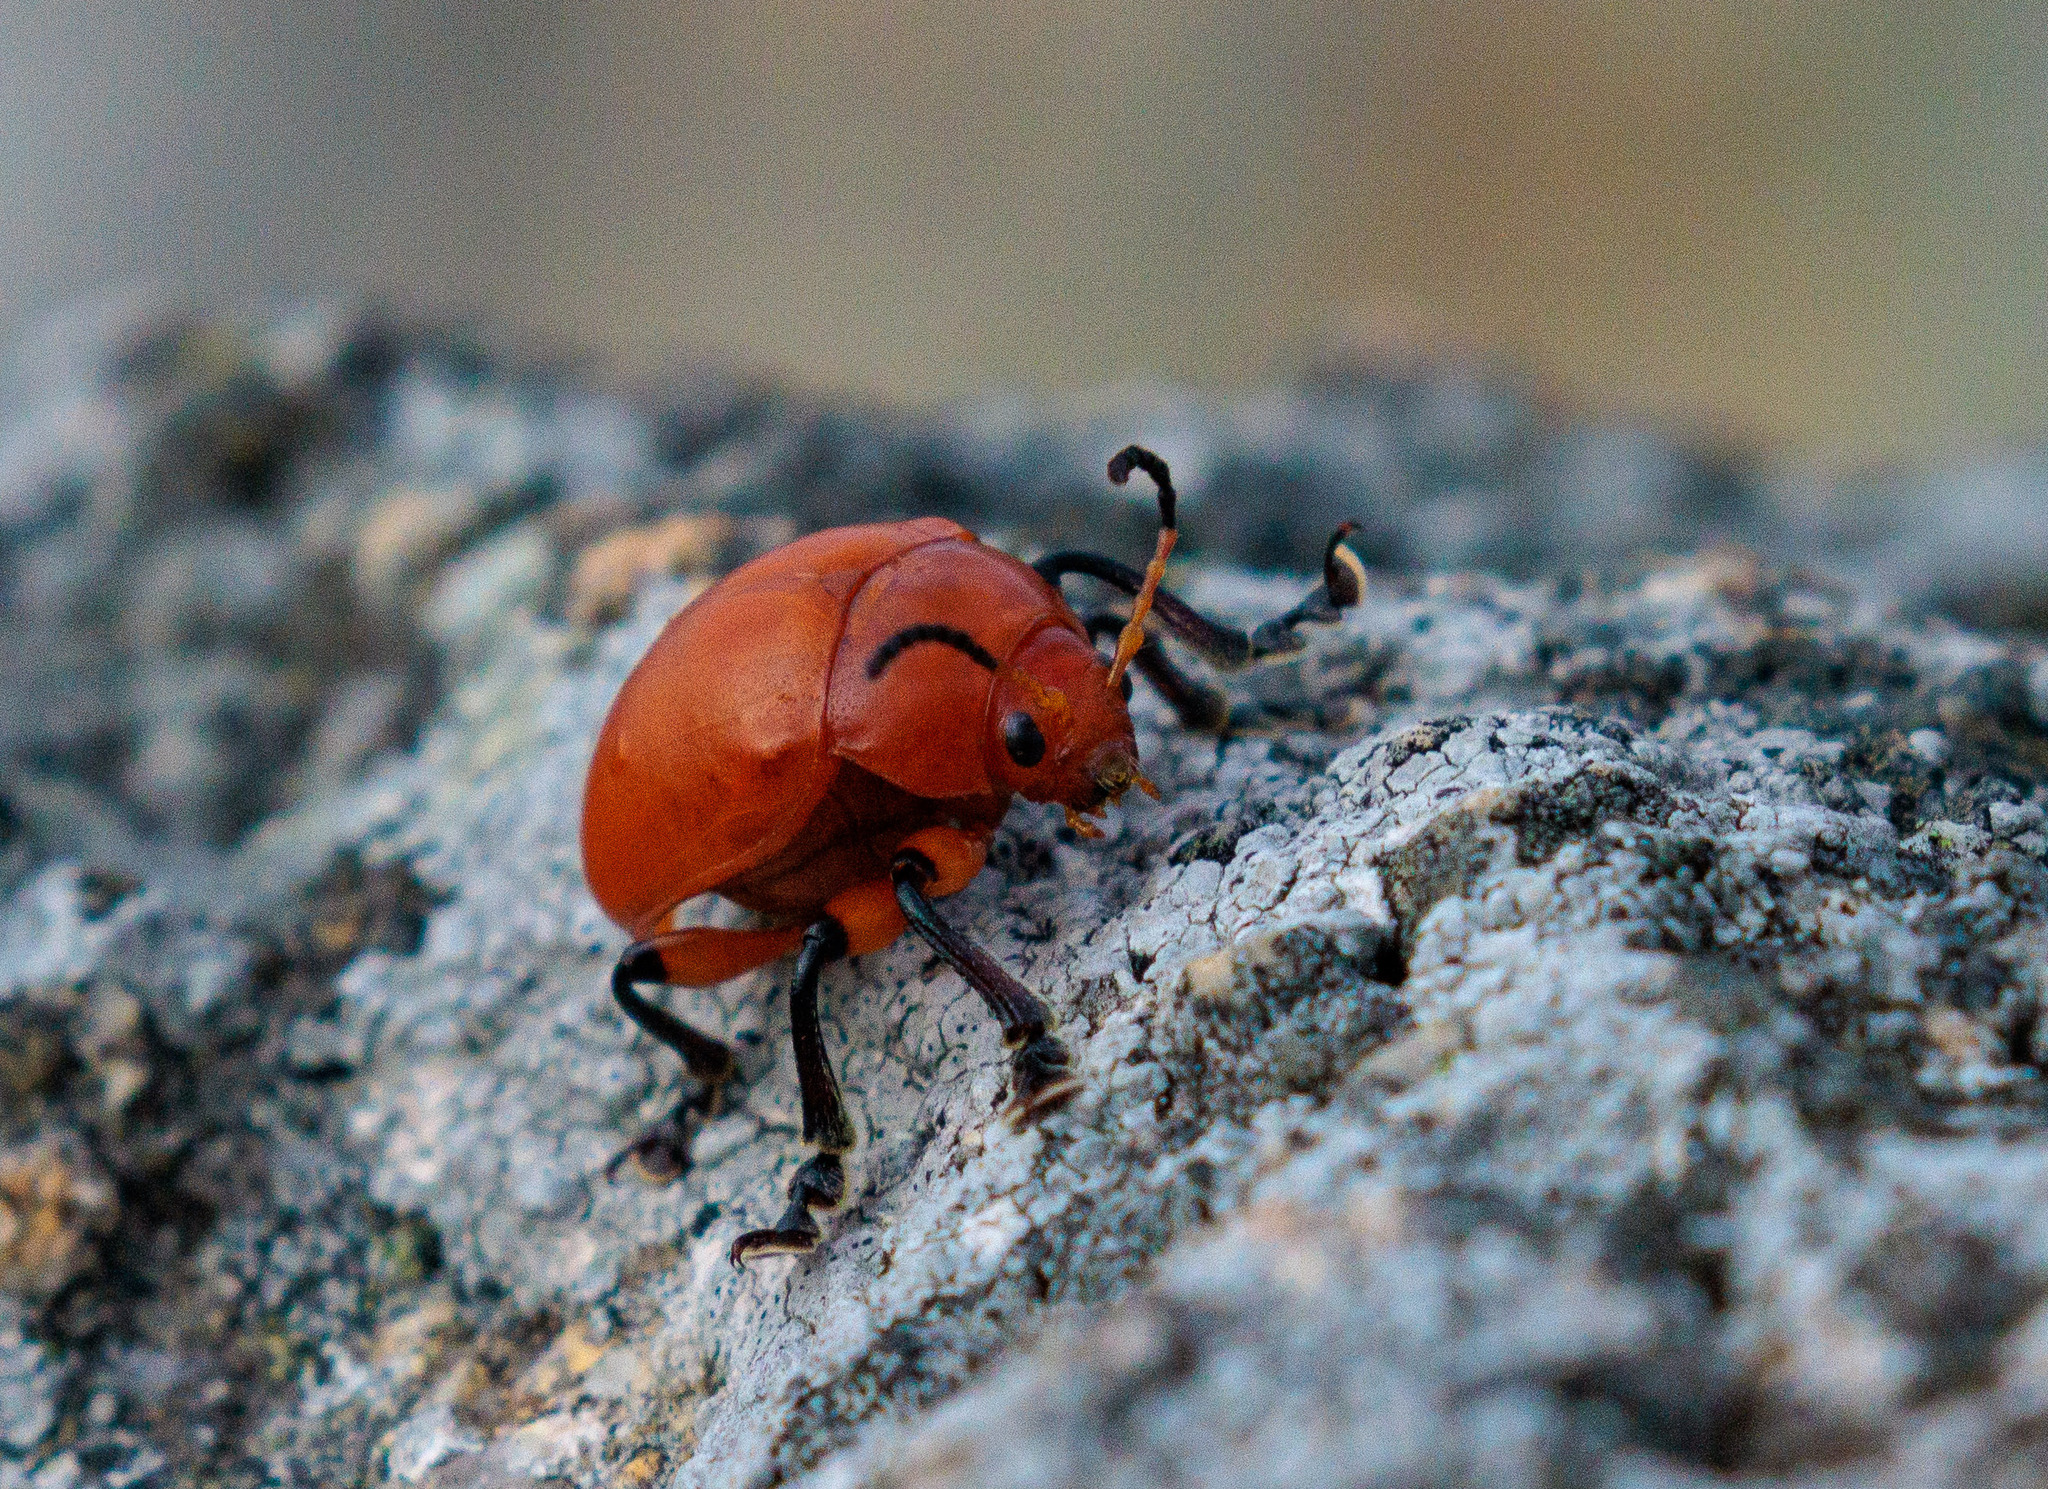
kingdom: Animalia
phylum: Arthropoda
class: Insecta
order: Coleoptera
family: Chrysomelidae
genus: Crimissa
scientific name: Crimissa cruralis
